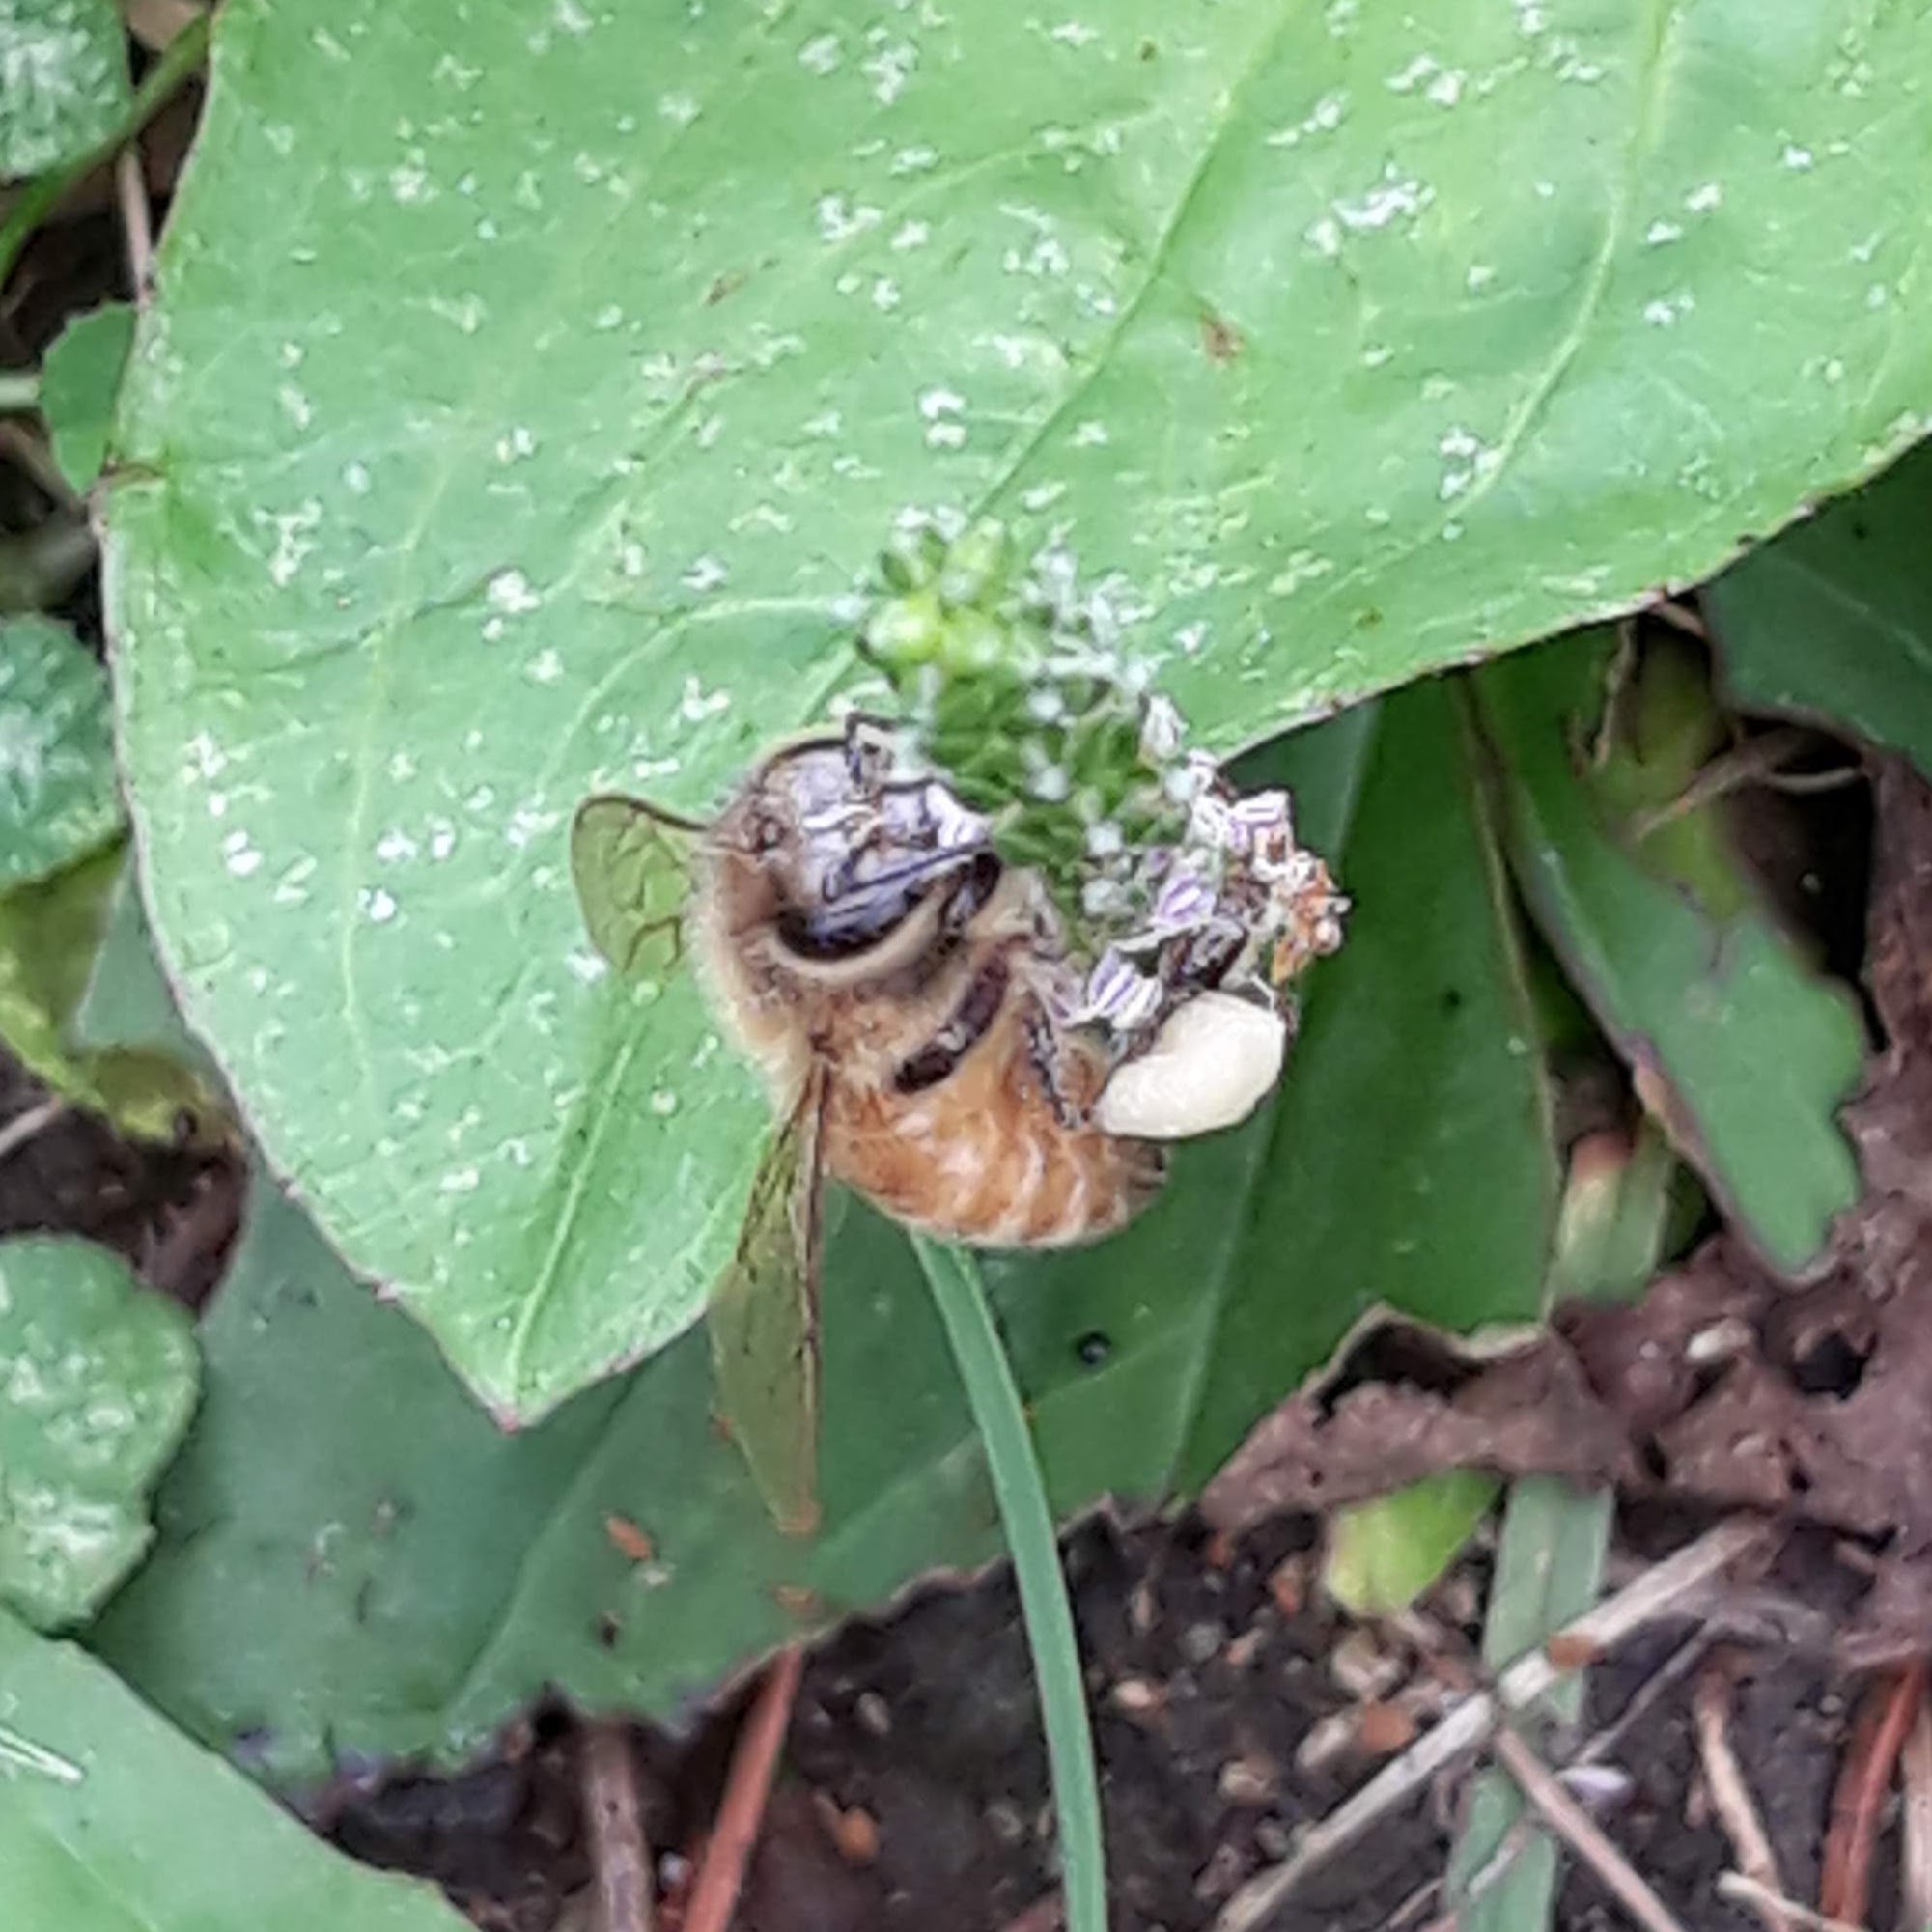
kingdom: Animalia
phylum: Arthropoda
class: Insecta
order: Hymenoptera
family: Apidae
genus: Apis
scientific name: Apis mellifera
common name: Honey bee
